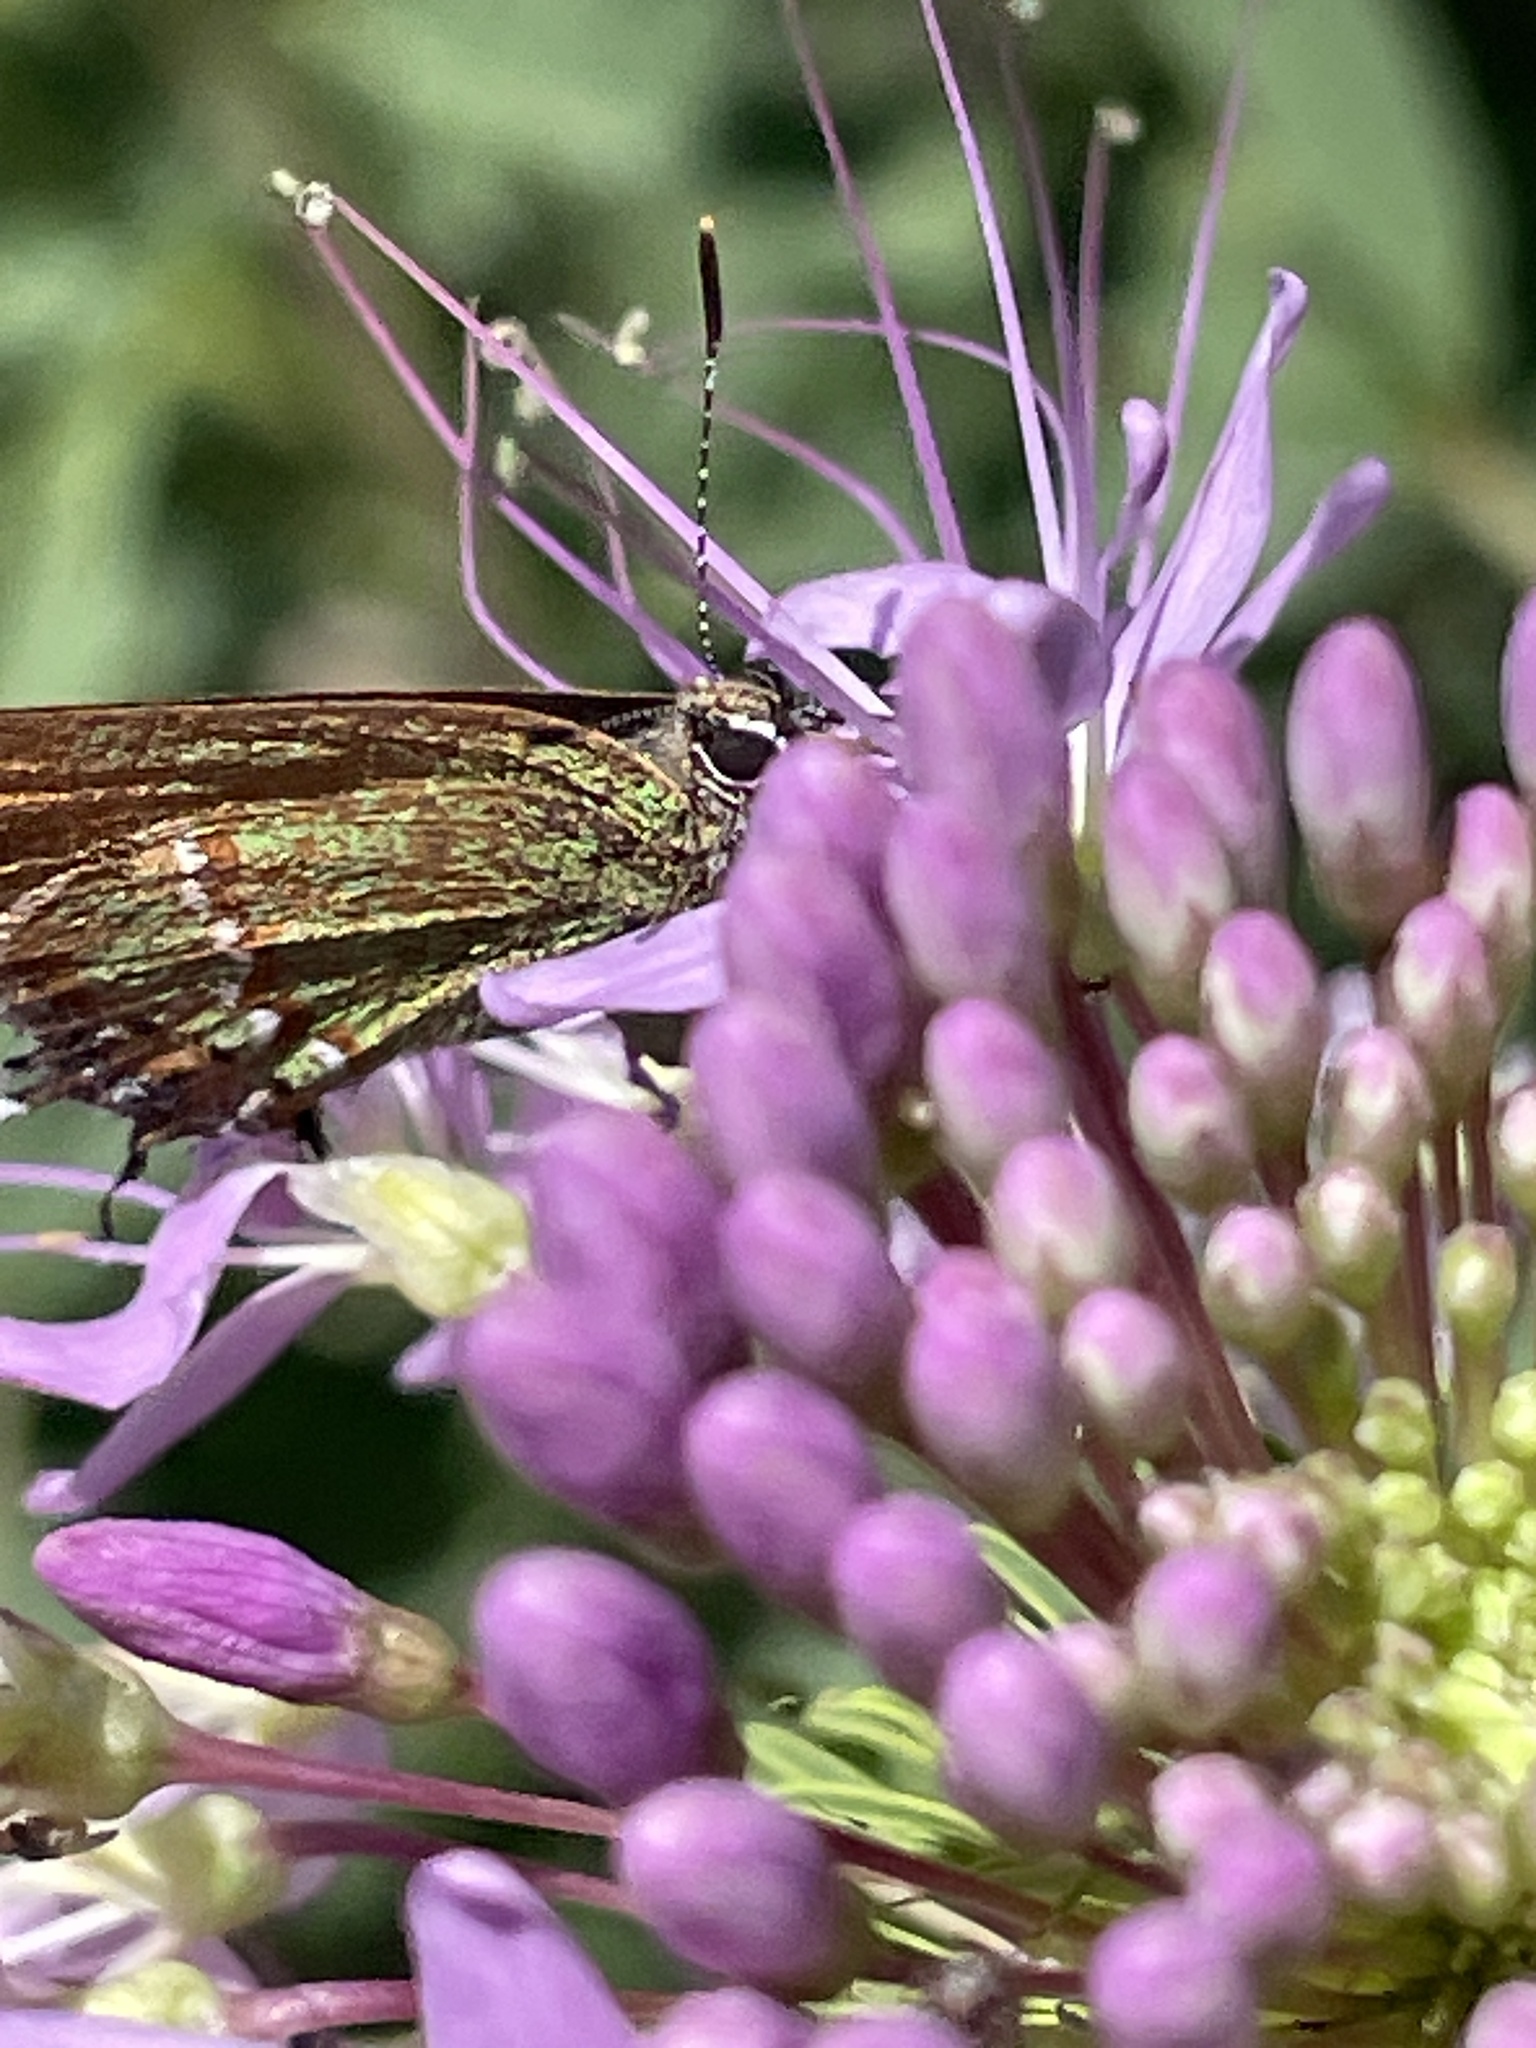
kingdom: Animalia
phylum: Arthropoda
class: Insecta
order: Lepidoptera
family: Lycaenidae
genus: Mitoura
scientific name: Mitoura gryneus
